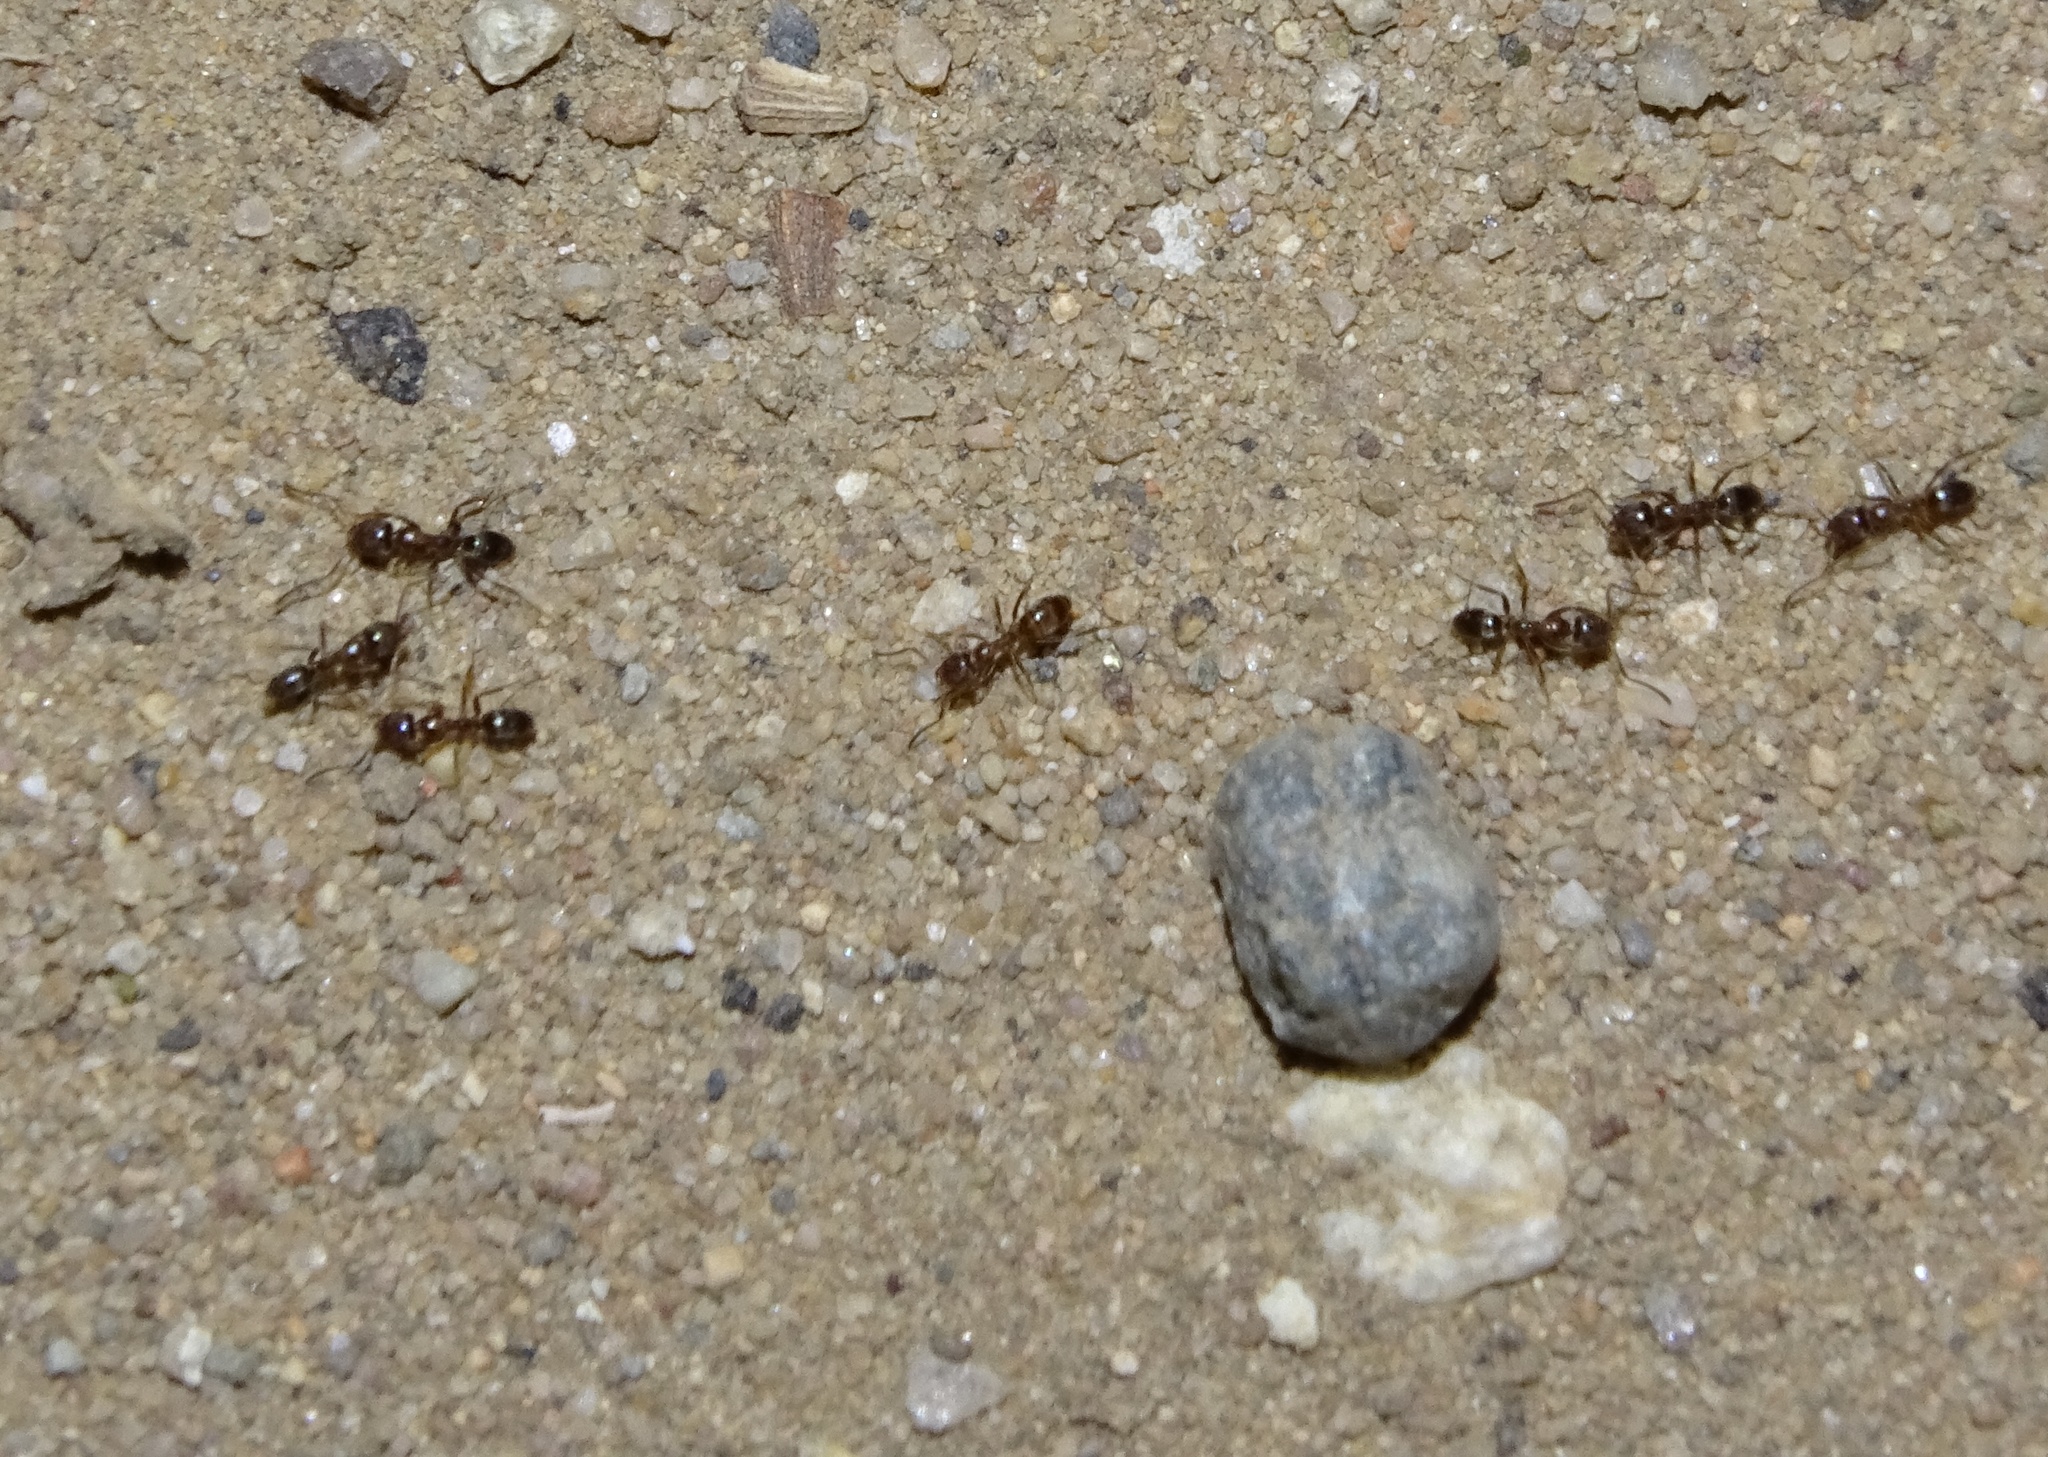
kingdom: Animalia
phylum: Arthropoda
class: Insecta
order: Hymenoptera
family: Formicidae
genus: Linepithema
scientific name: Linepithema humile
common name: Argentine ant
